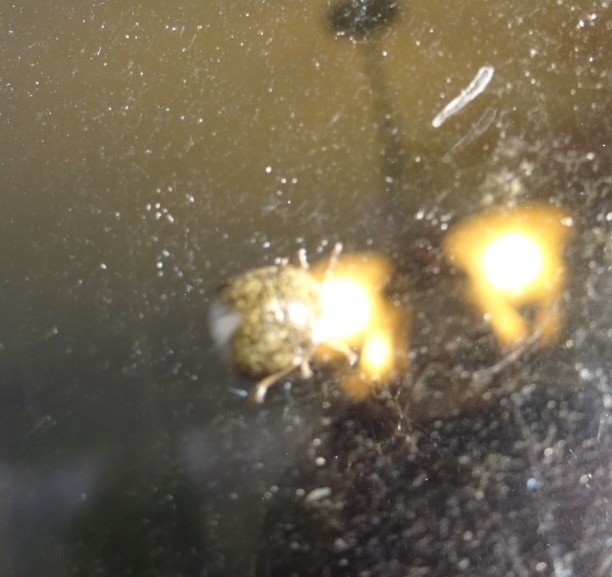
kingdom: Animalia
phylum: Arthropoda
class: Insecta
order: Hemiptera
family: Plataspidae
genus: Megacopta
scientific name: Megacopta cribraria
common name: Bean plataspid
